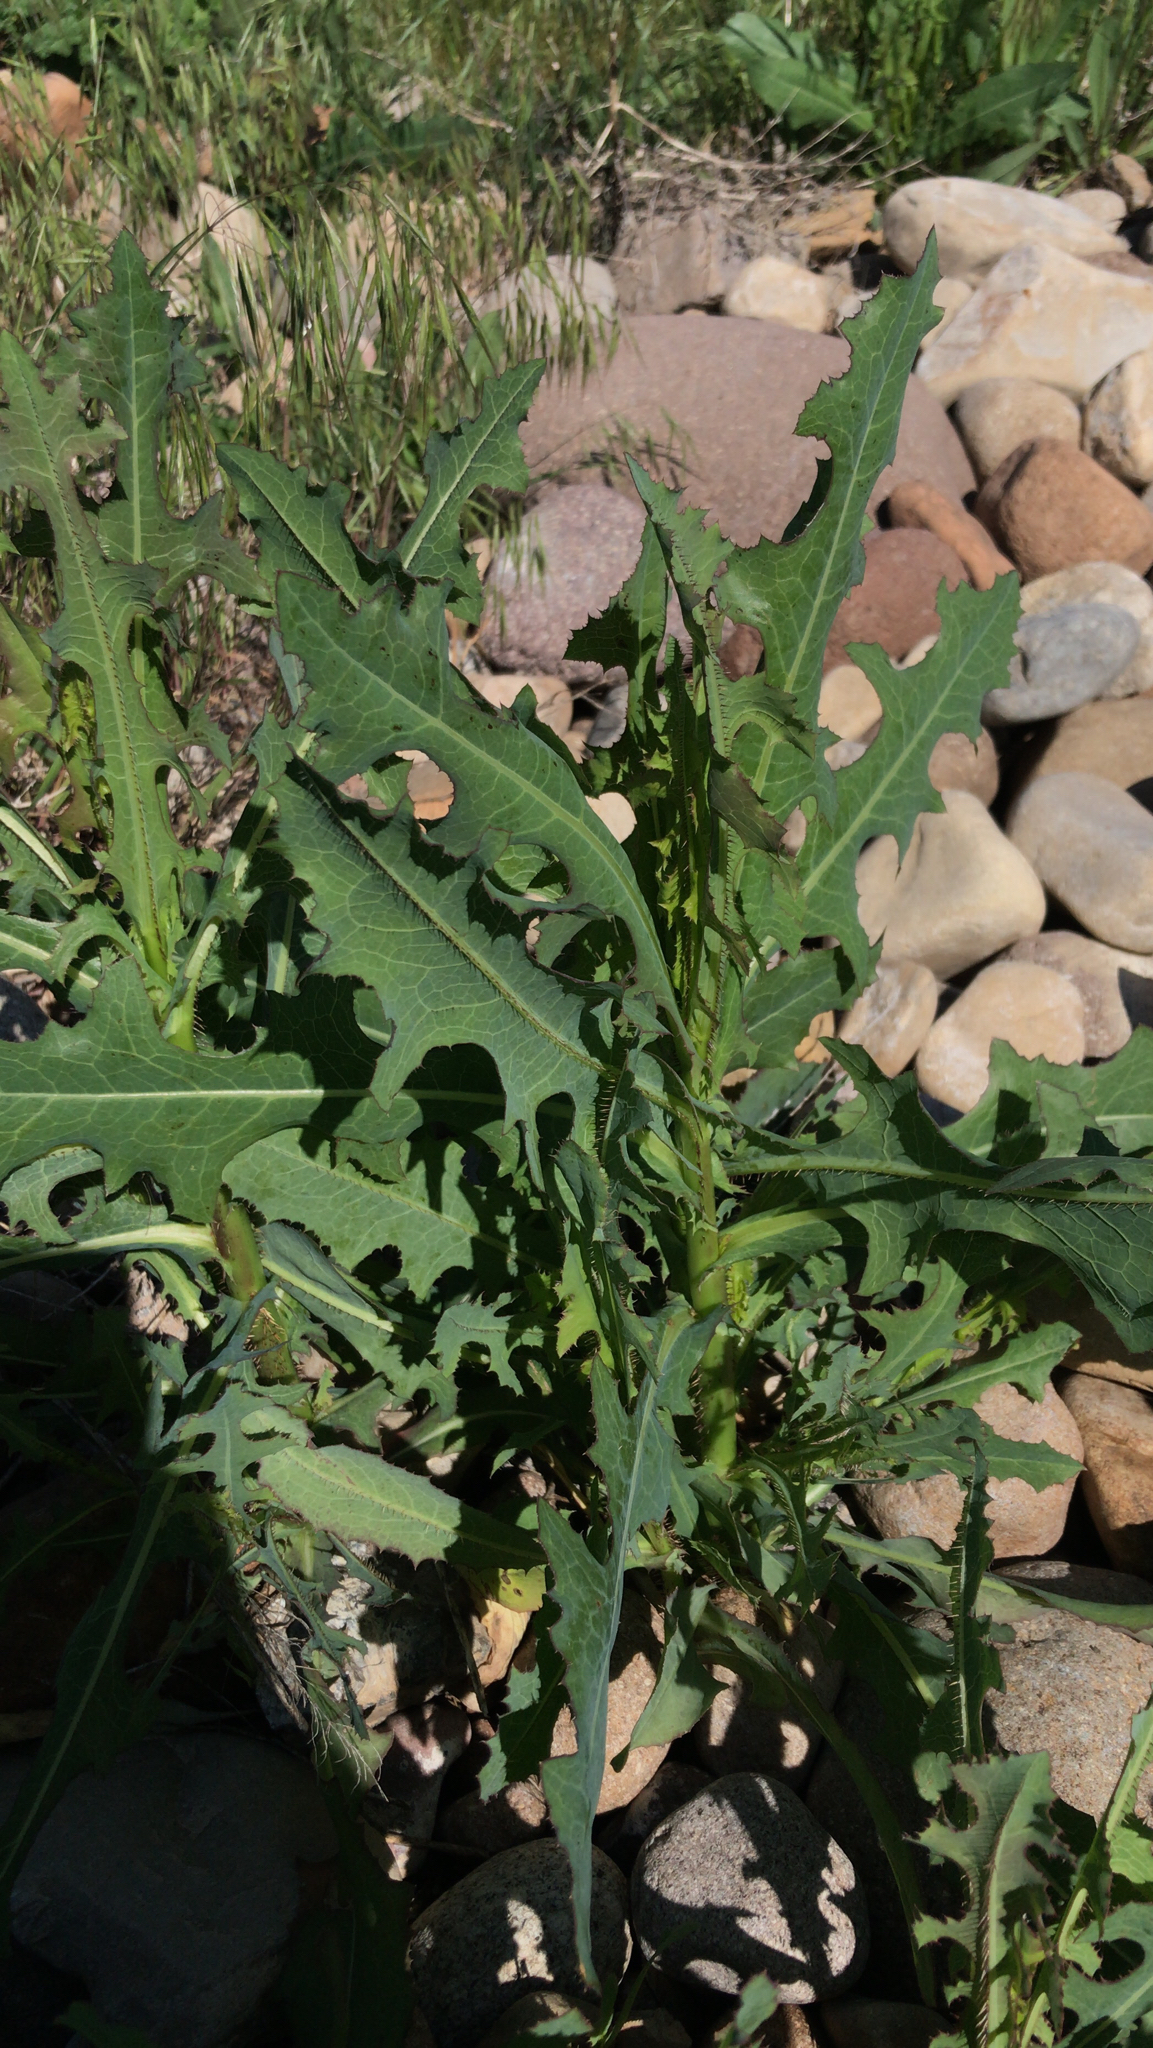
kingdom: Plantae
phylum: Tracheophyta
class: Magnoliopsida
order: Asterales
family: Asteraceae
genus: Lactuca
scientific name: Lactuca serriola
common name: Prickly lettuce
